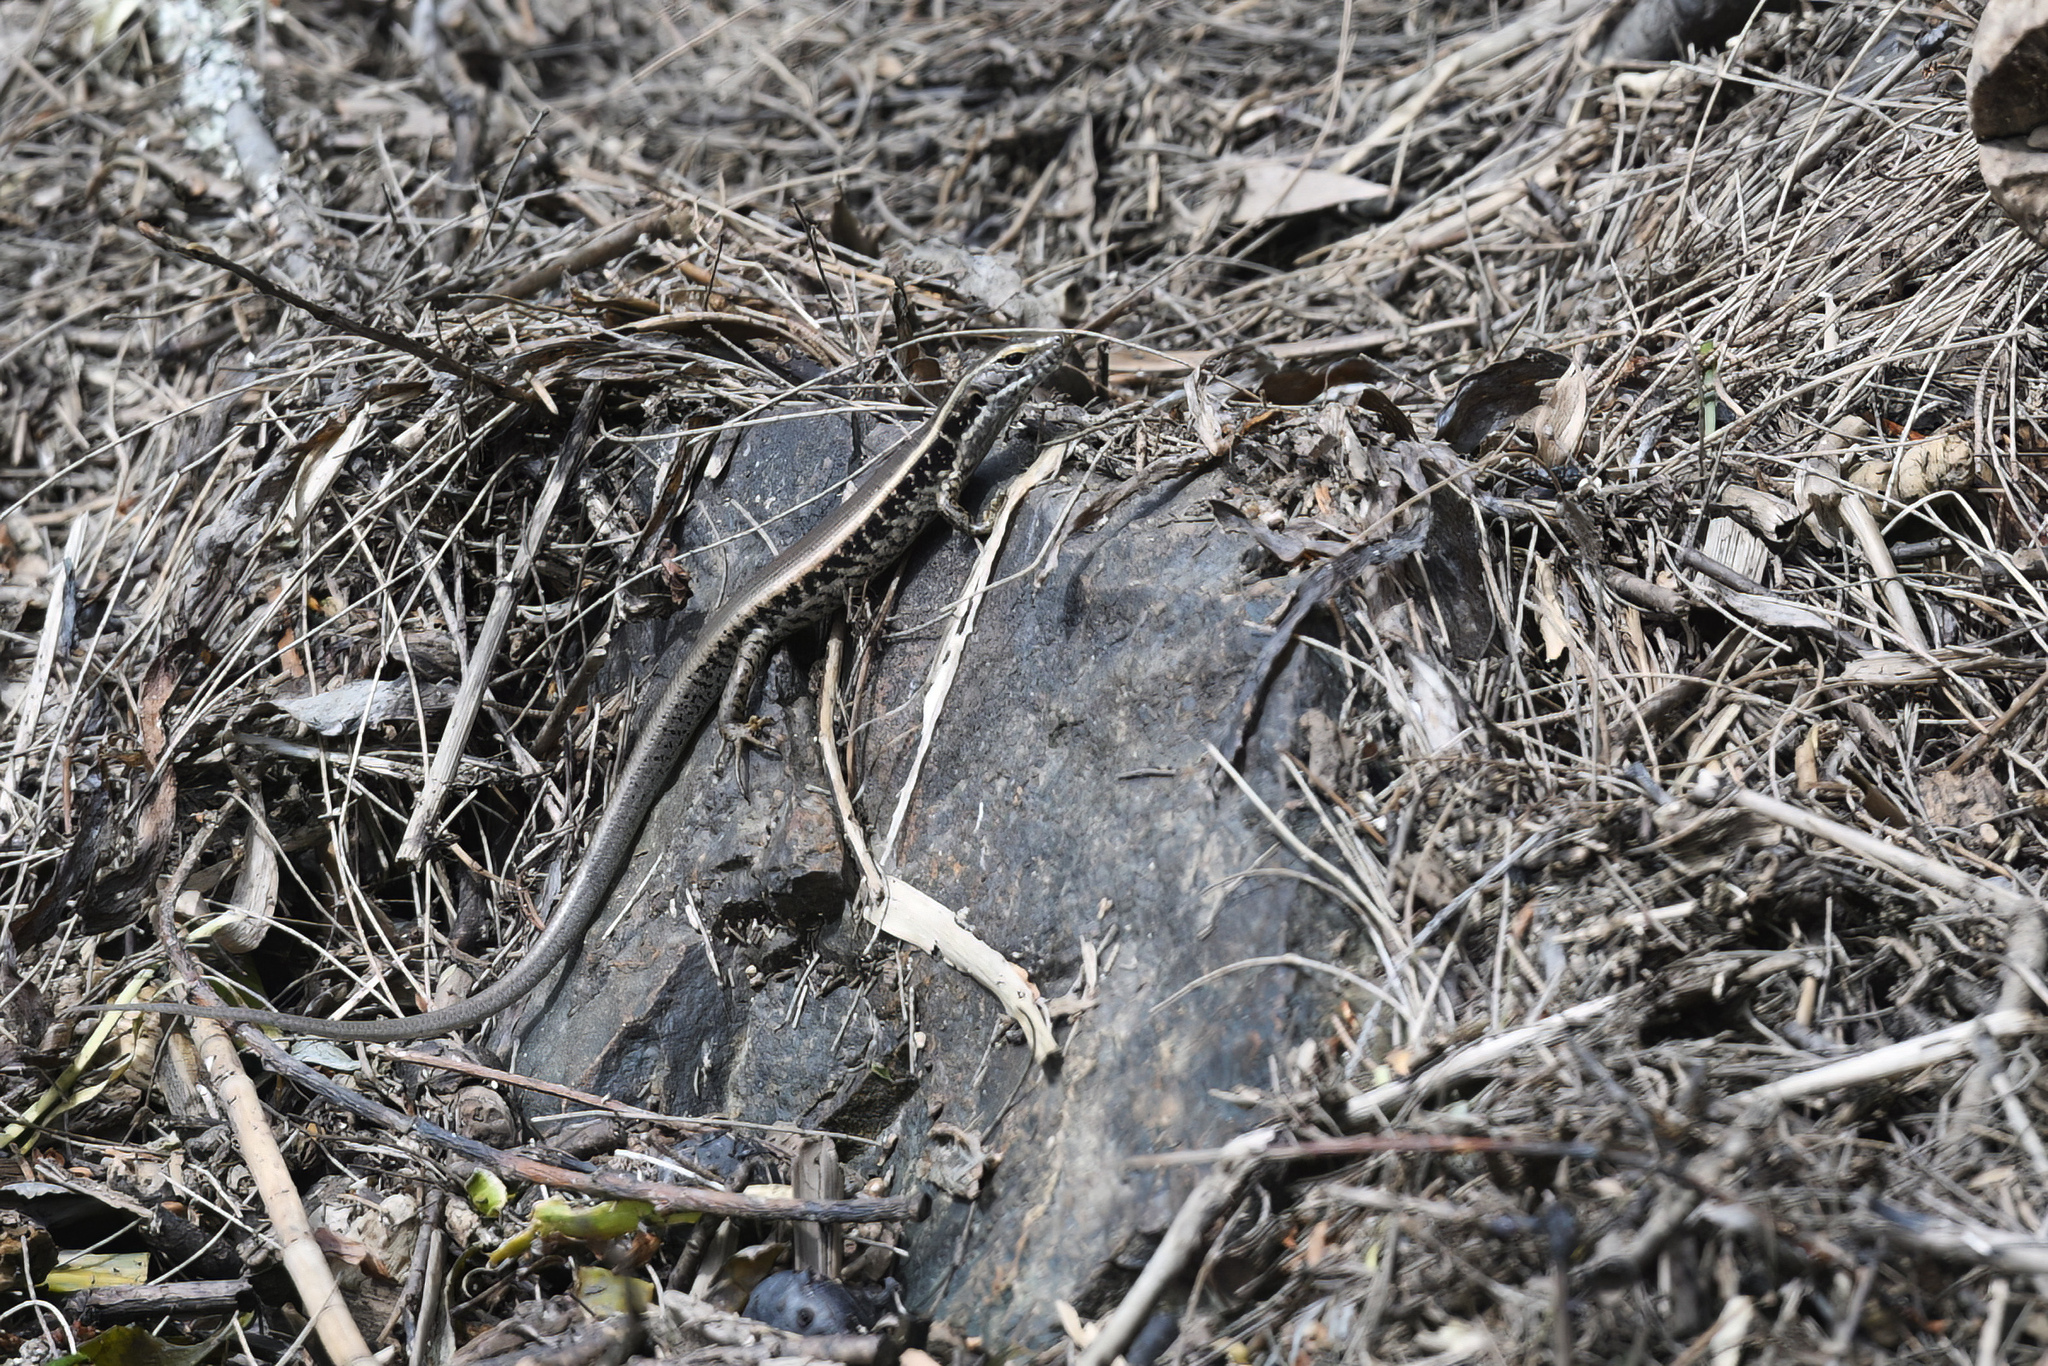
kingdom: Animalia
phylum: Chordata
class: Squamata
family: Scincidae
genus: Eulamprus
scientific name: Eulamprus quoyii
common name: Eastern water skink
